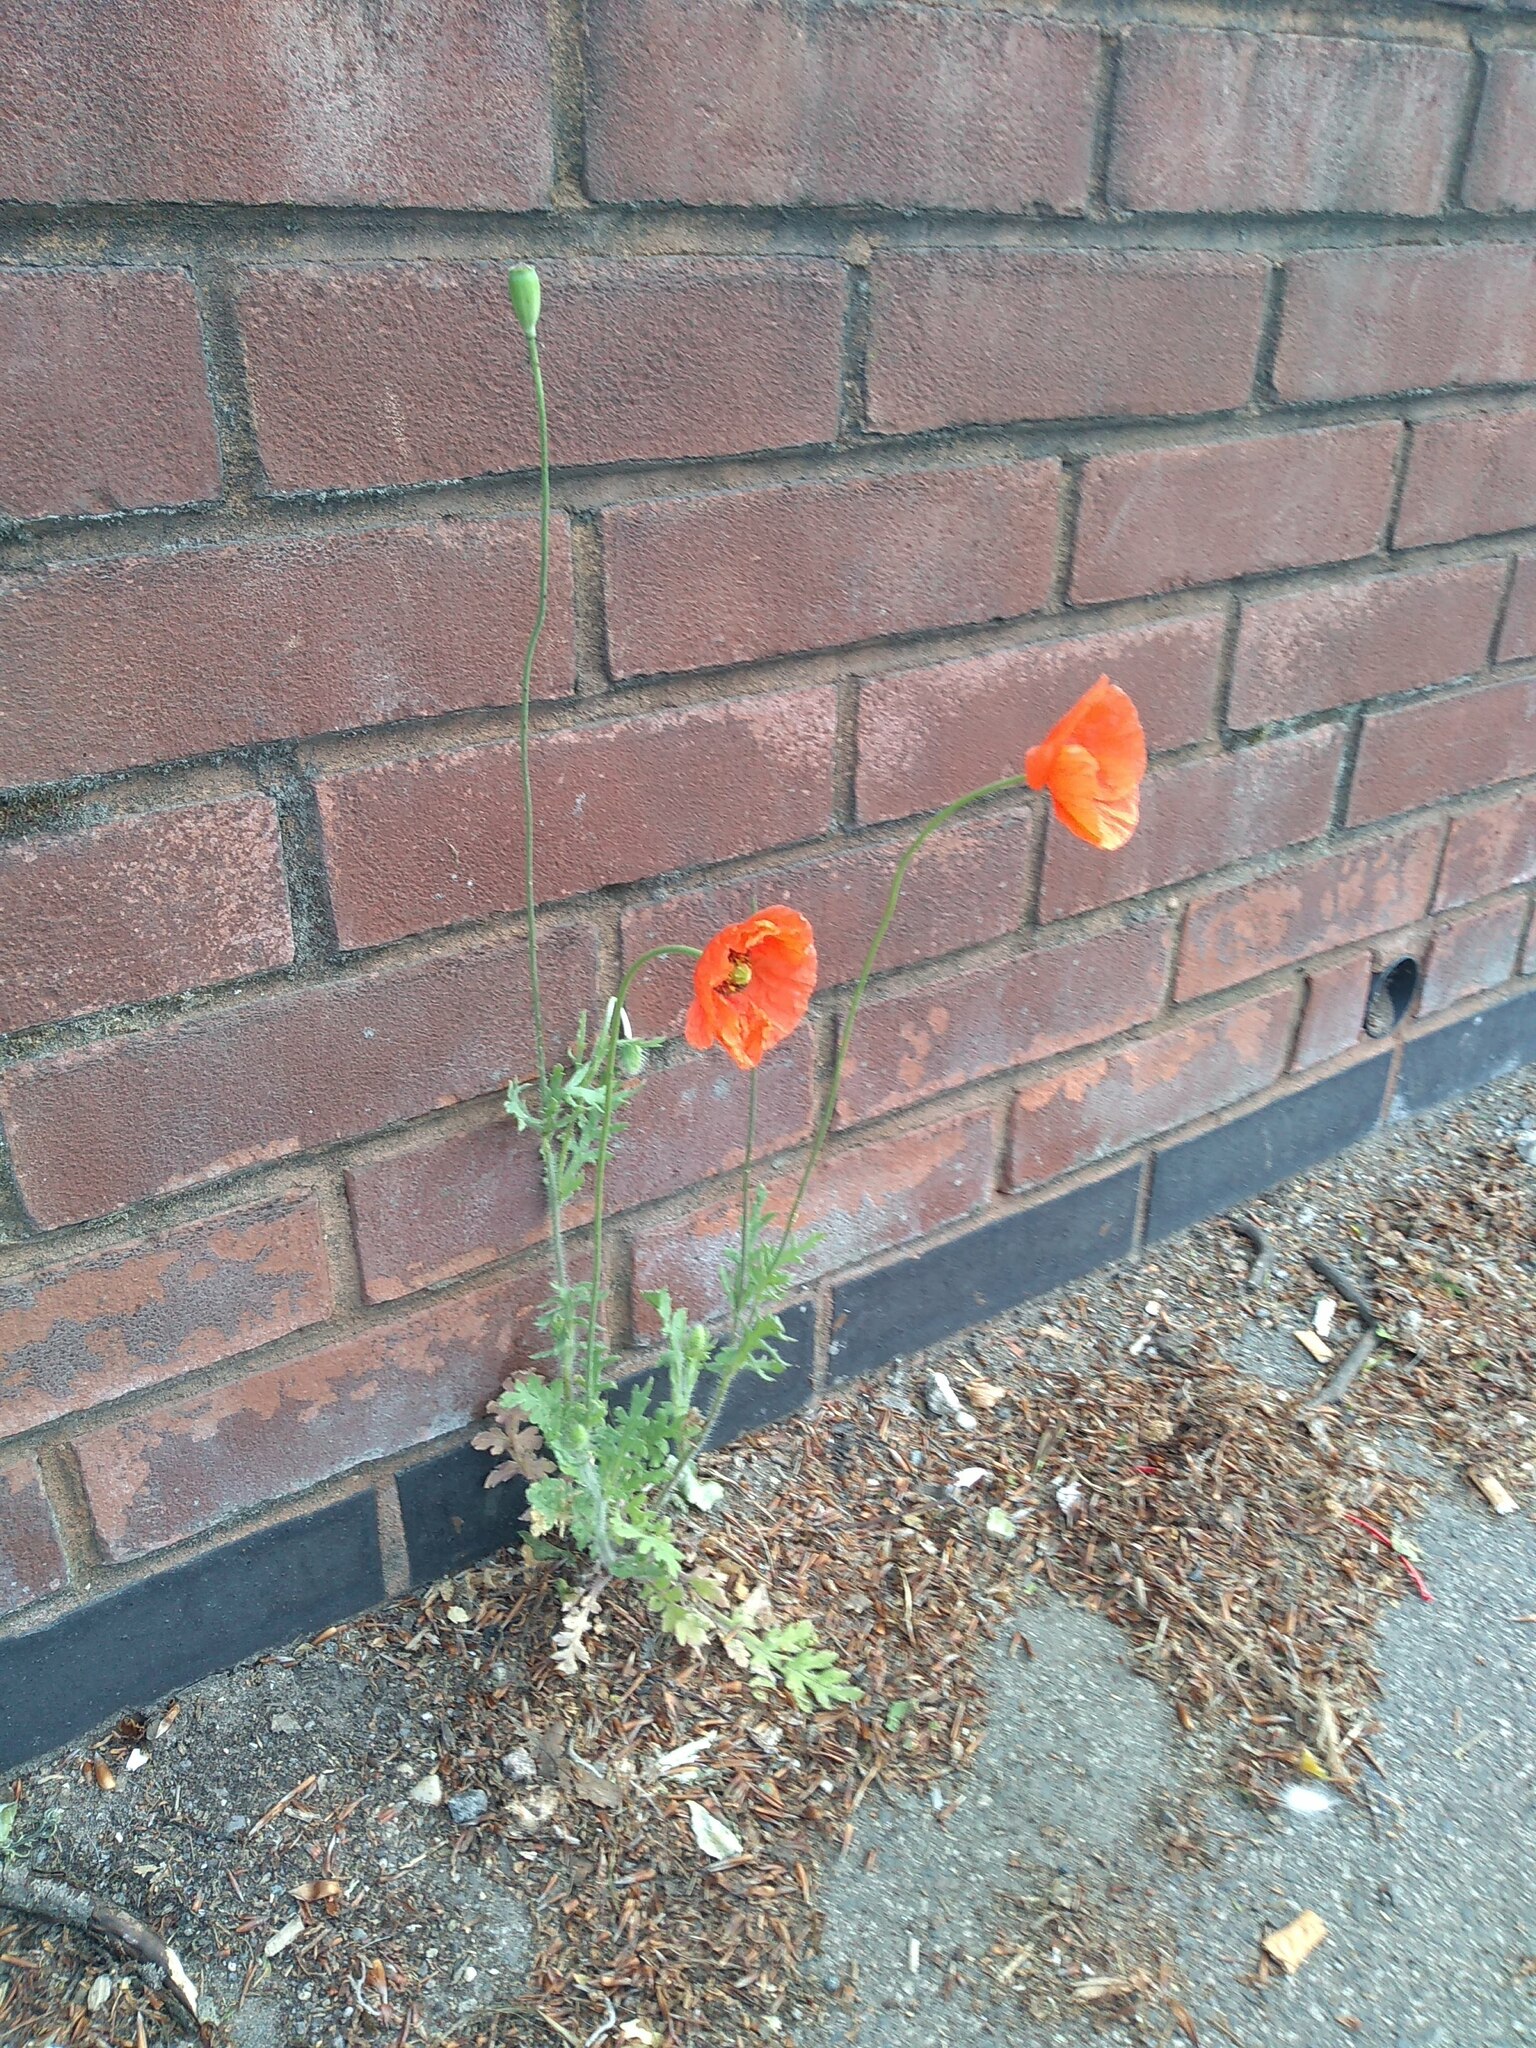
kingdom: Plantae
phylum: Tracheophyta
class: Magnoliopsida
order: Ranunculales
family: Papaveraceae
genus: Papaver
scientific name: Papaver dubium
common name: Long-headed poppy
